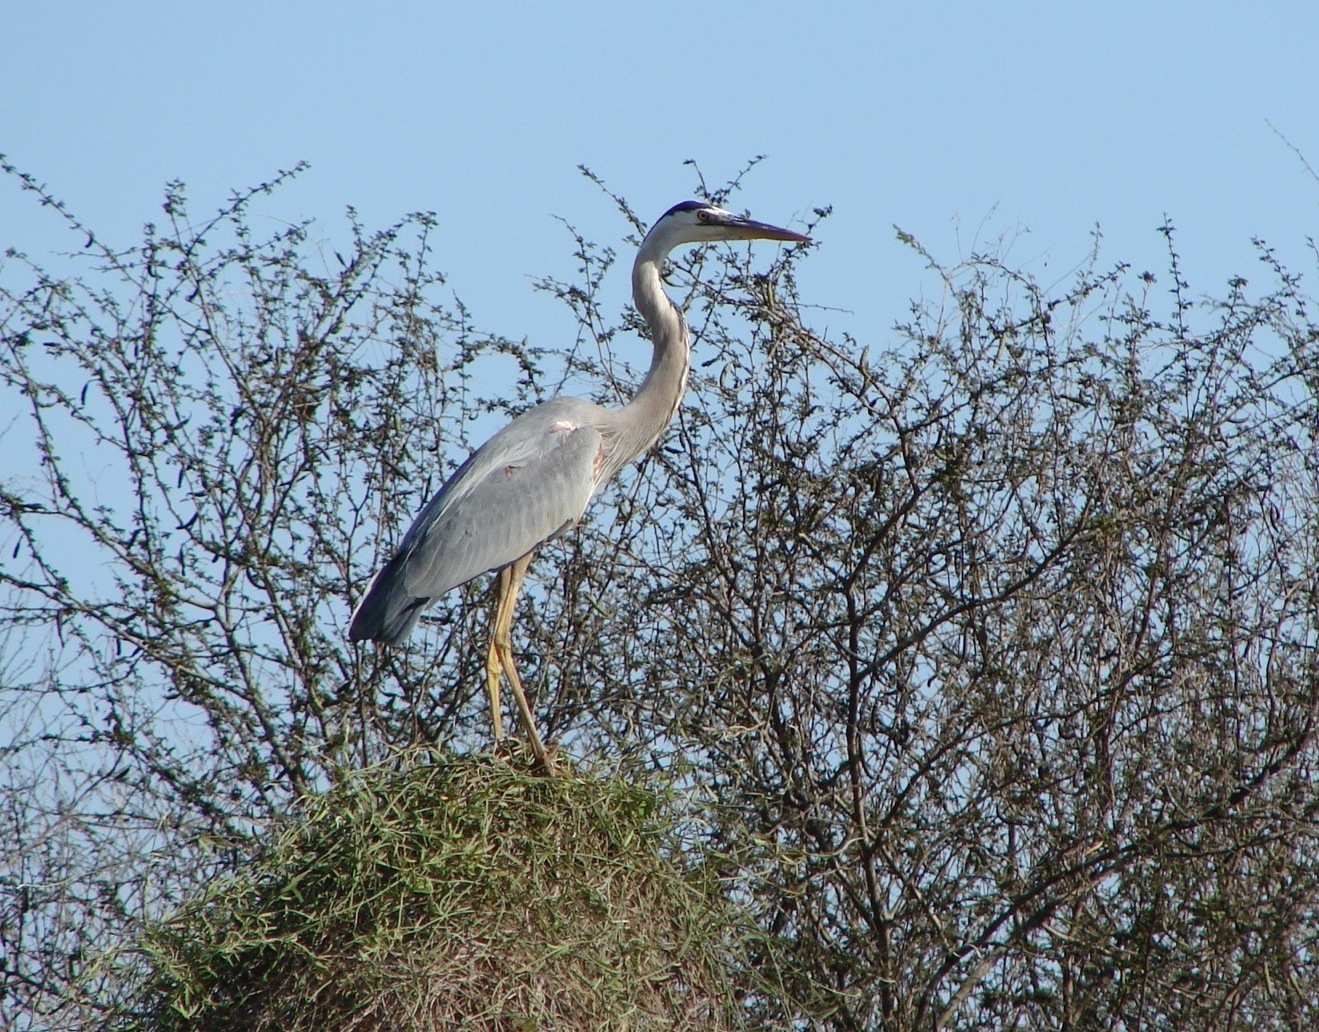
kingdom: Animalia
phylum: Chordata
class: Aves
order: Pelecaniformes
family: Ardeidae
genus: Ardea
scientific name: Ardea herodias
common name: Great blue heron
